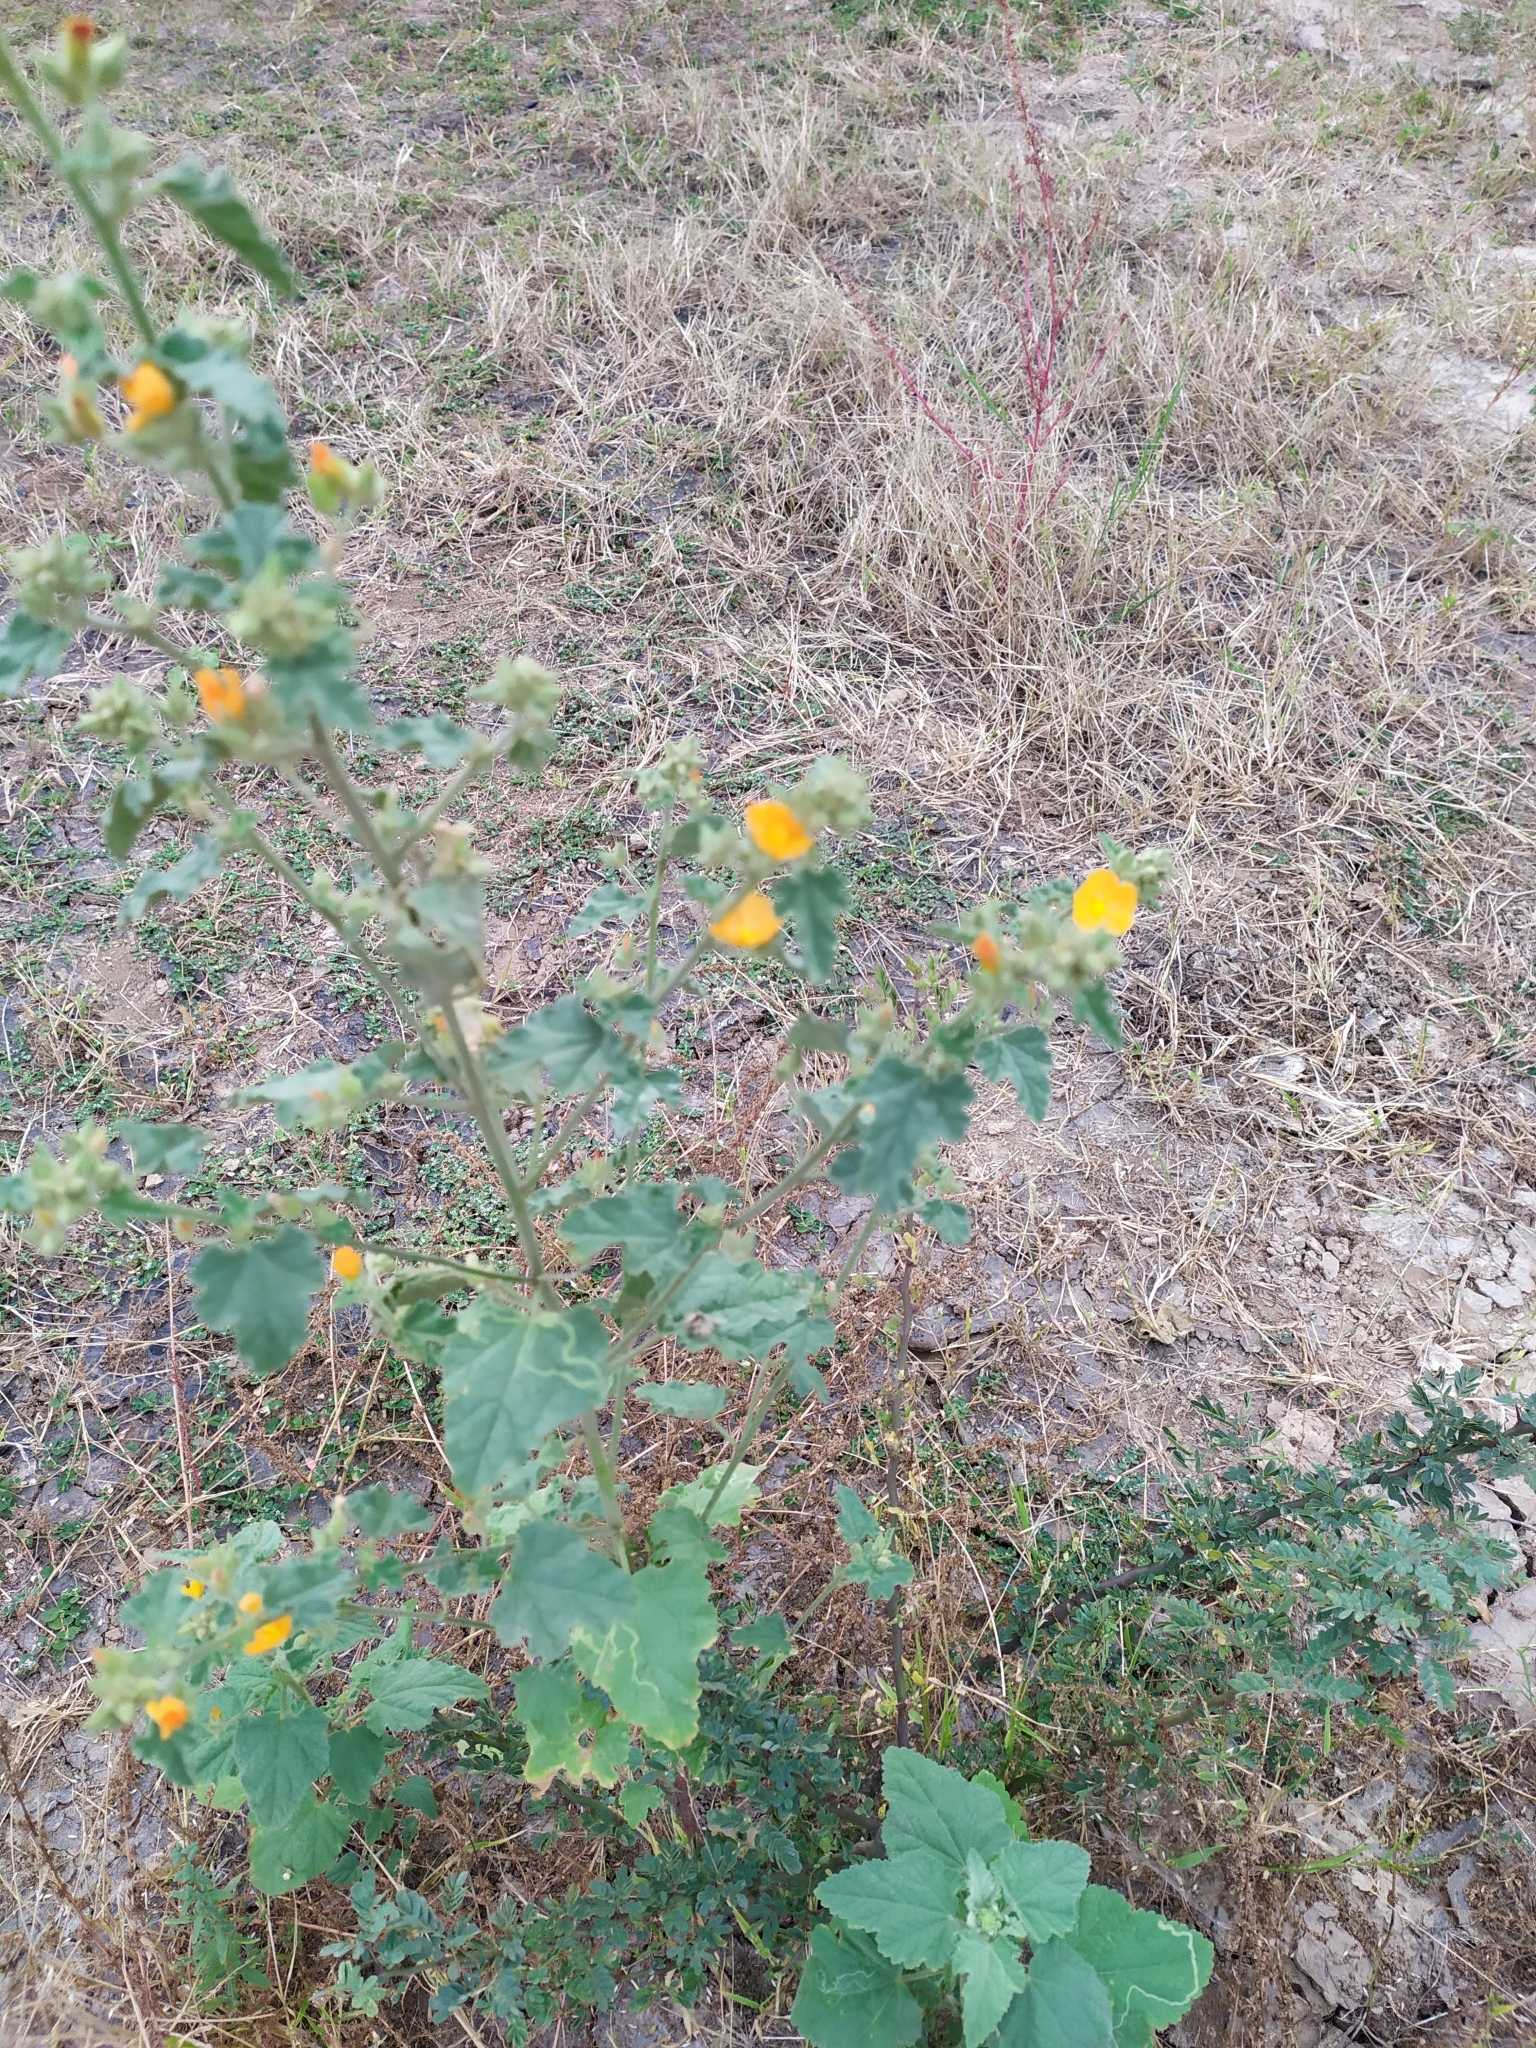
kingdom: Plantae
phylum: Tracheophyta
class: Magnoliopsida
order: Malvales
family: Malvaceae
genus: Sphaeralcea
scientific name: Sphaeralcea coulteri
